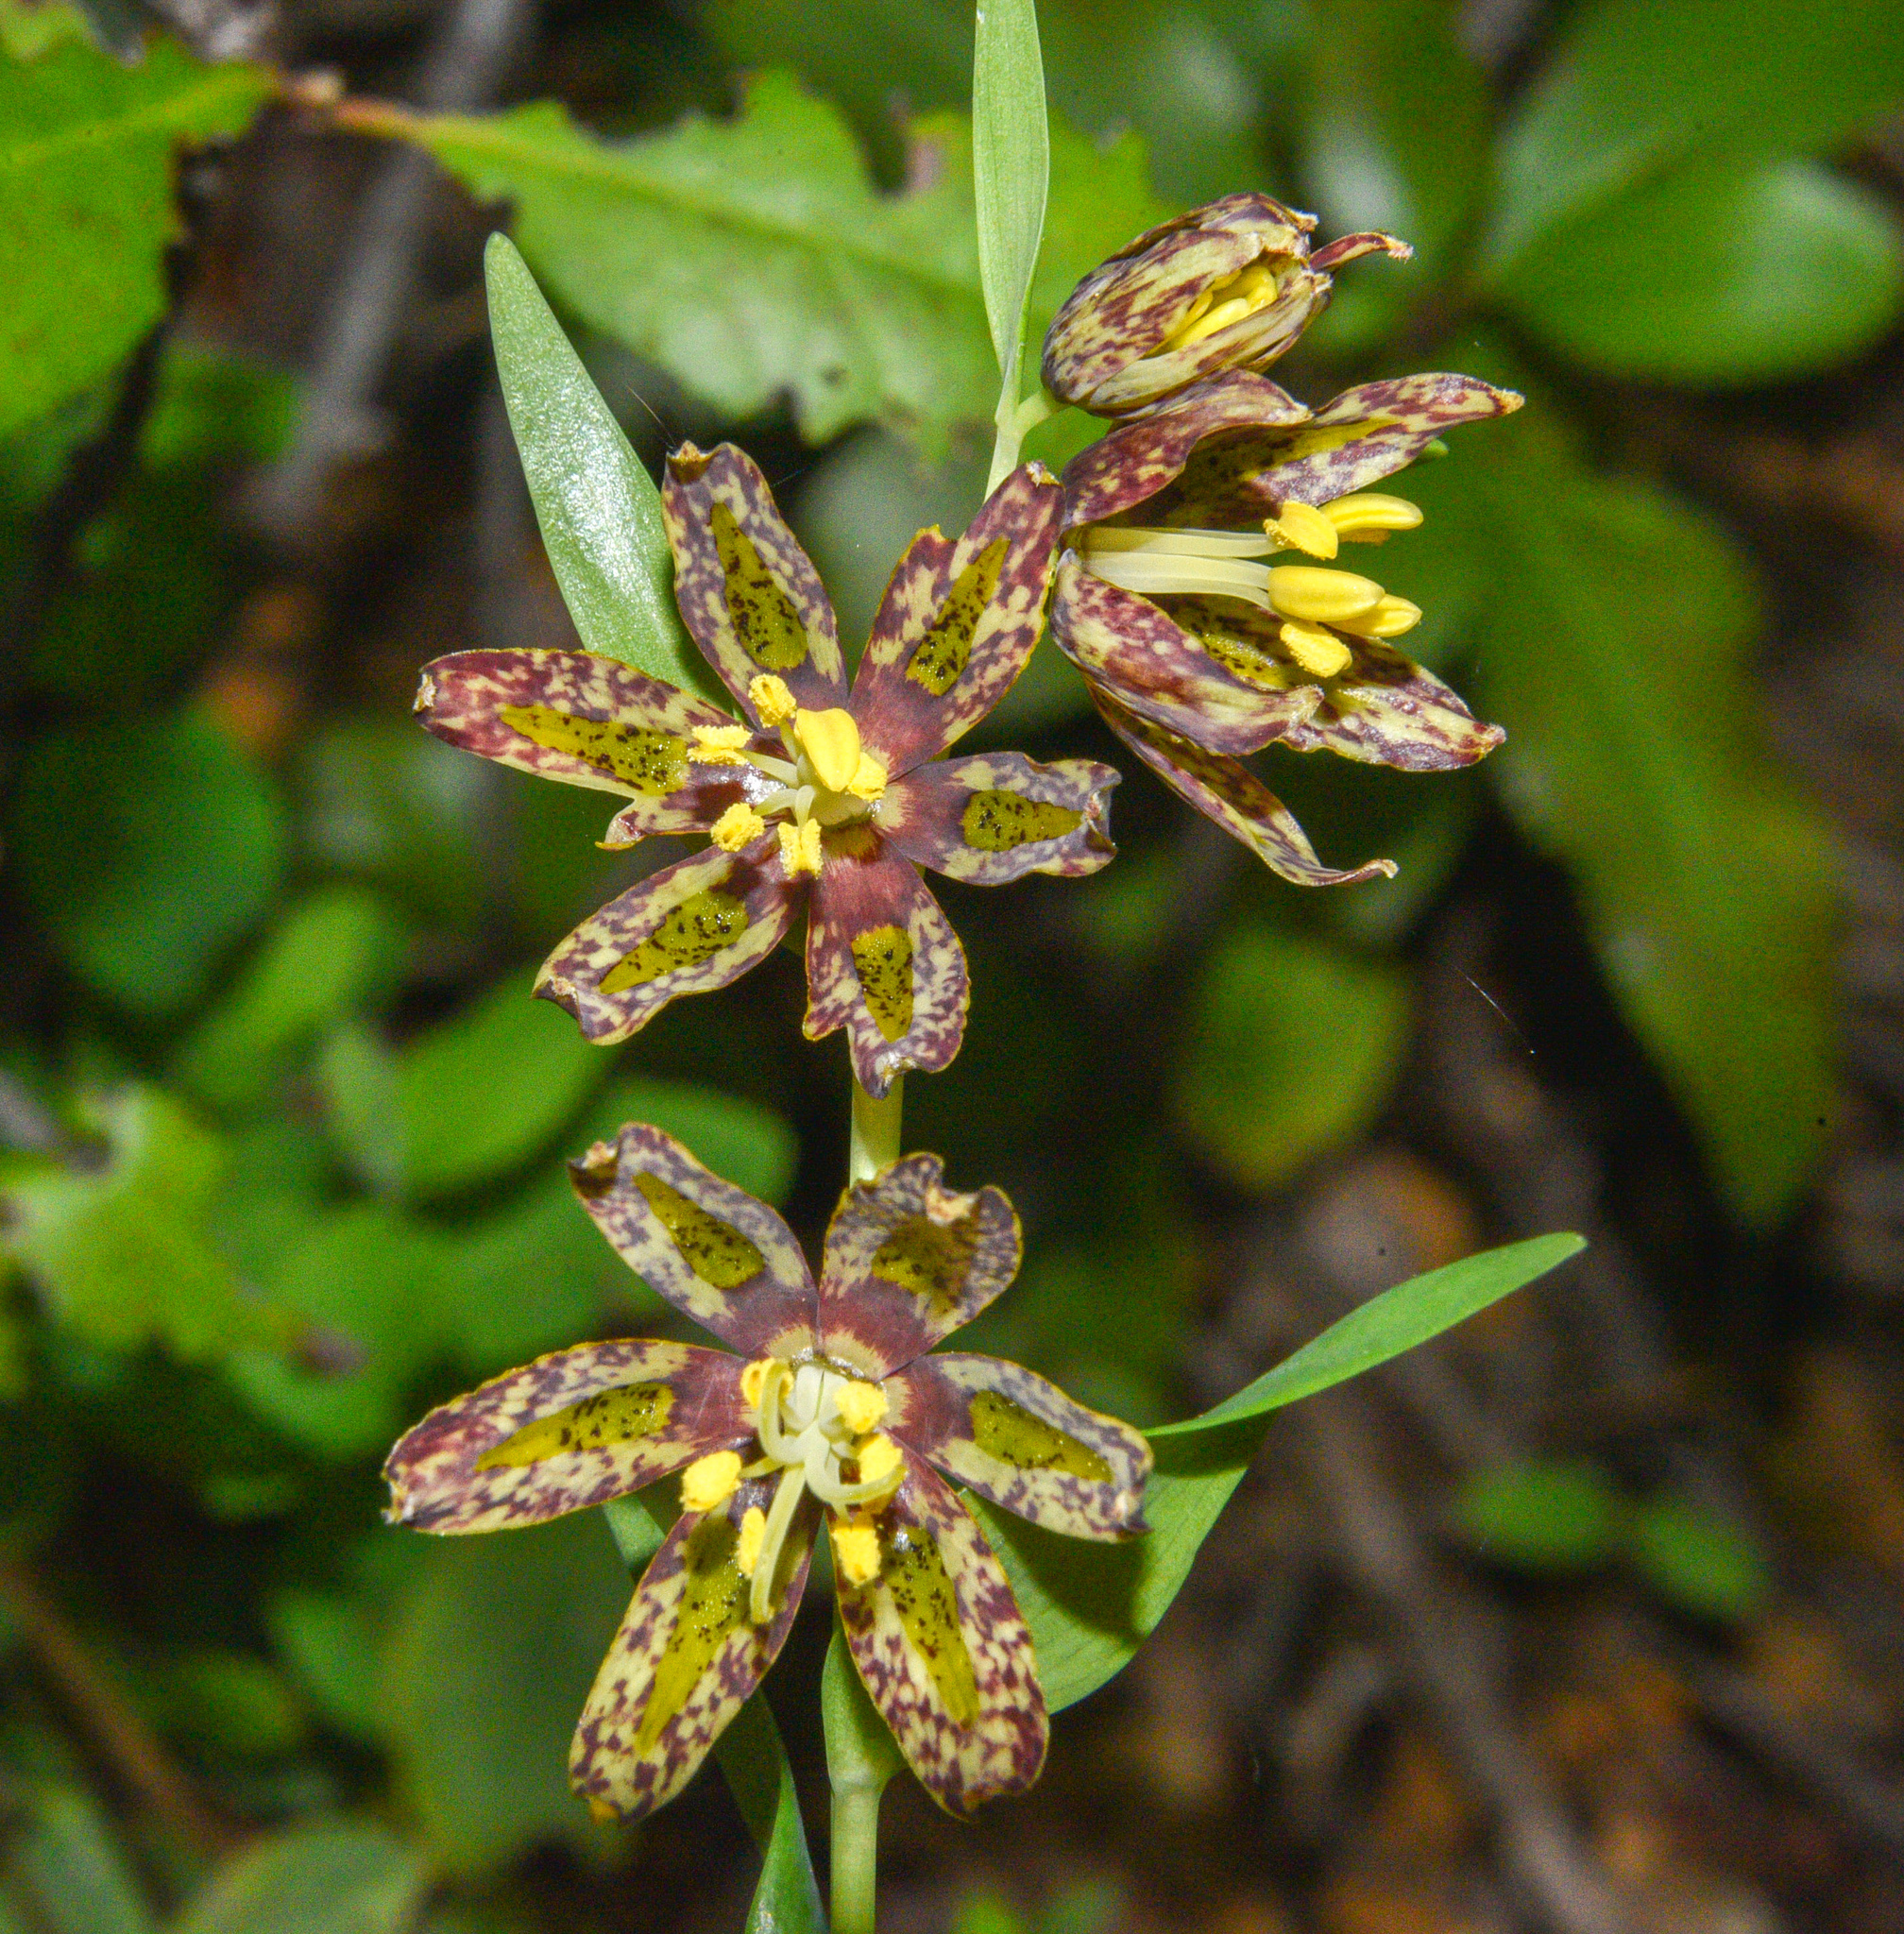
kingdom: Plantae
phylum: Tracheophyta
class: Liliopsida
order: Liliales
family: Liliaceae
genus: Fritillaria
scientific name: Fritillaria affinis
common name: Ojai fritillary
